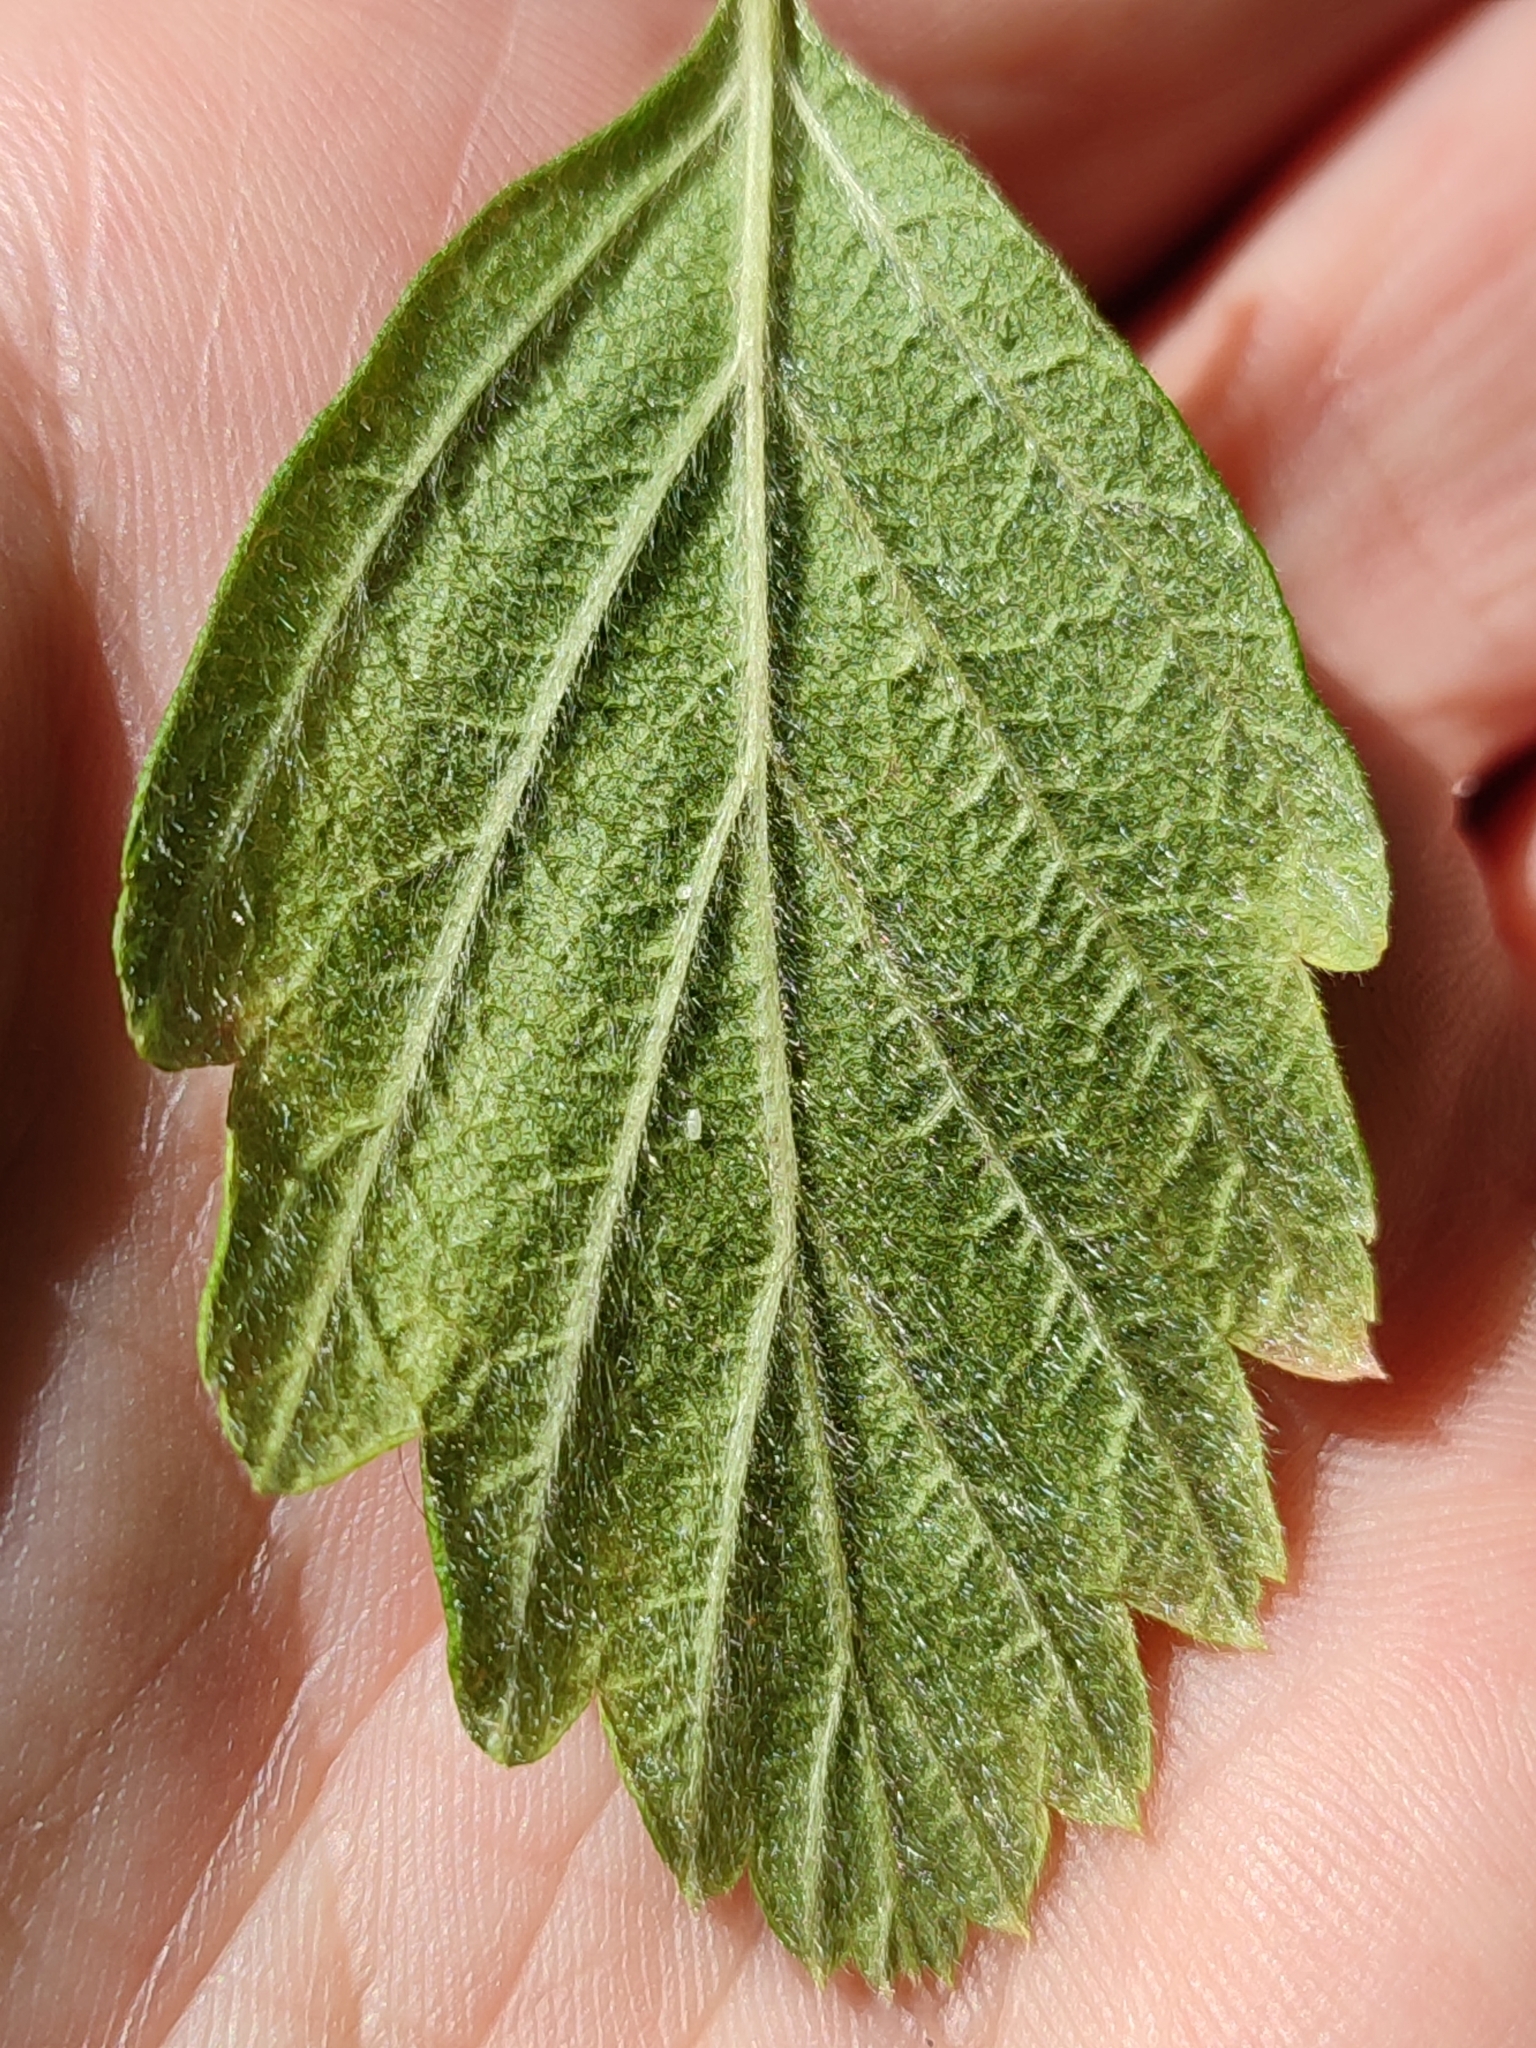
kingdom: Plantae
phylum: Tracheophyta
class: Magnoliopsida
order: Rosales
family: Rosaceae
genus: Holodiscus
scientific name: Holodiscus discolor
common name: Oceanspray
